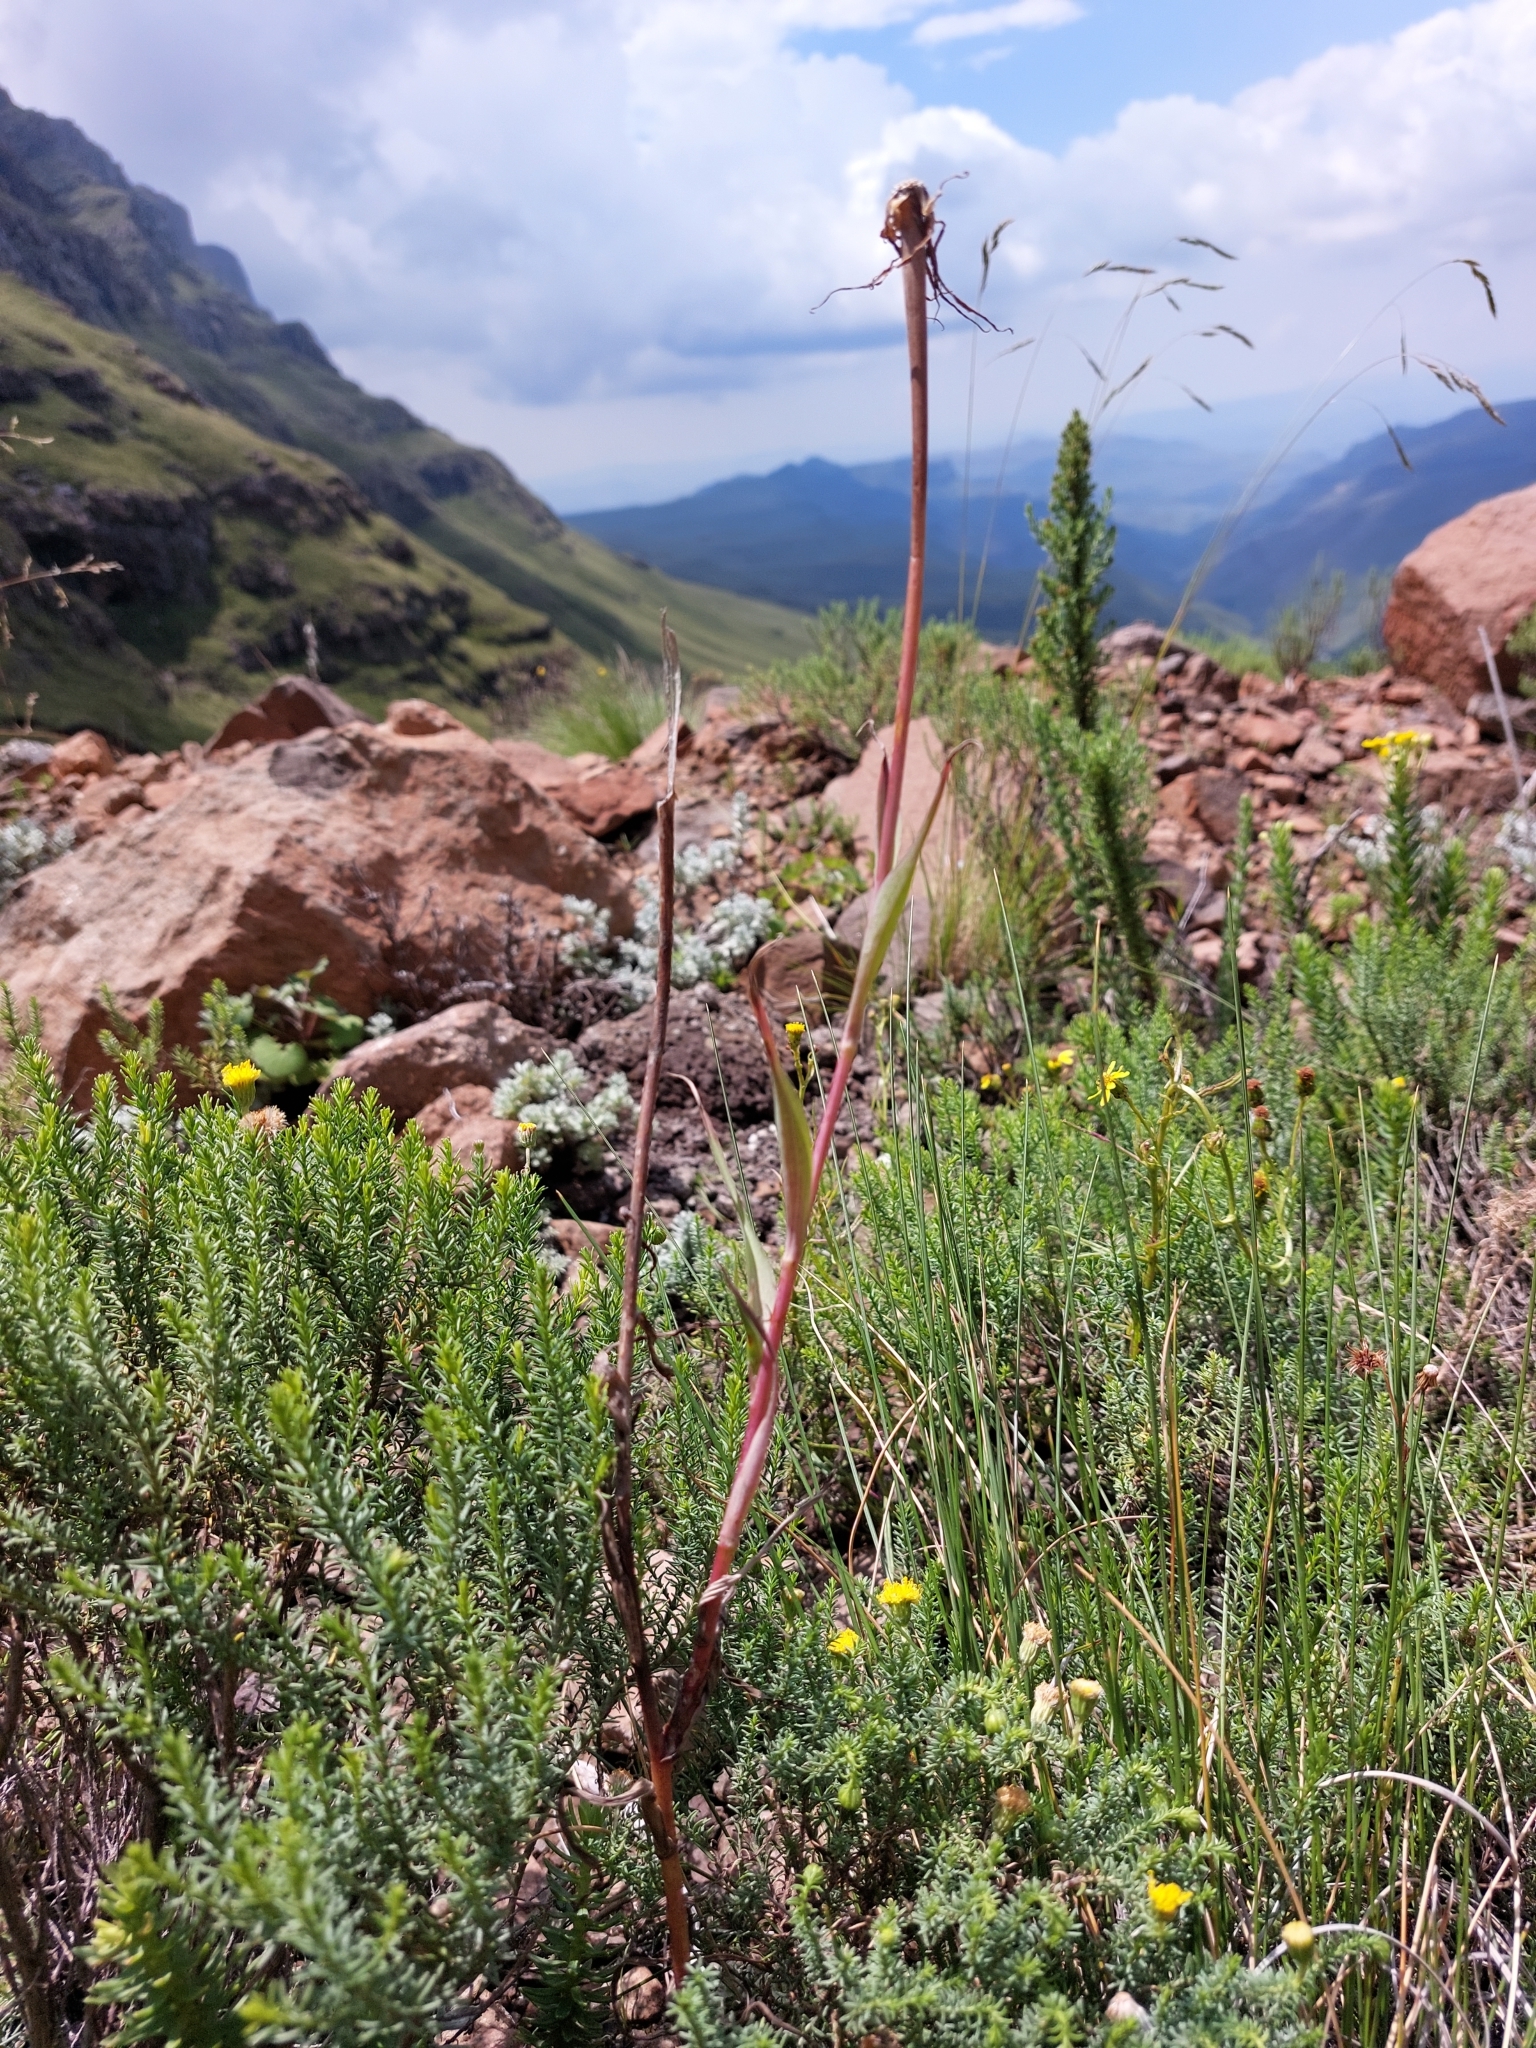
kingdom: Plantae
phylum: Tracheophyta
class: Magnoliopsida
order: Asterales
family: Asteraceae
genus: Tragopogon
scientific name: Tragopogon dubius
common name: Yellow salsify
